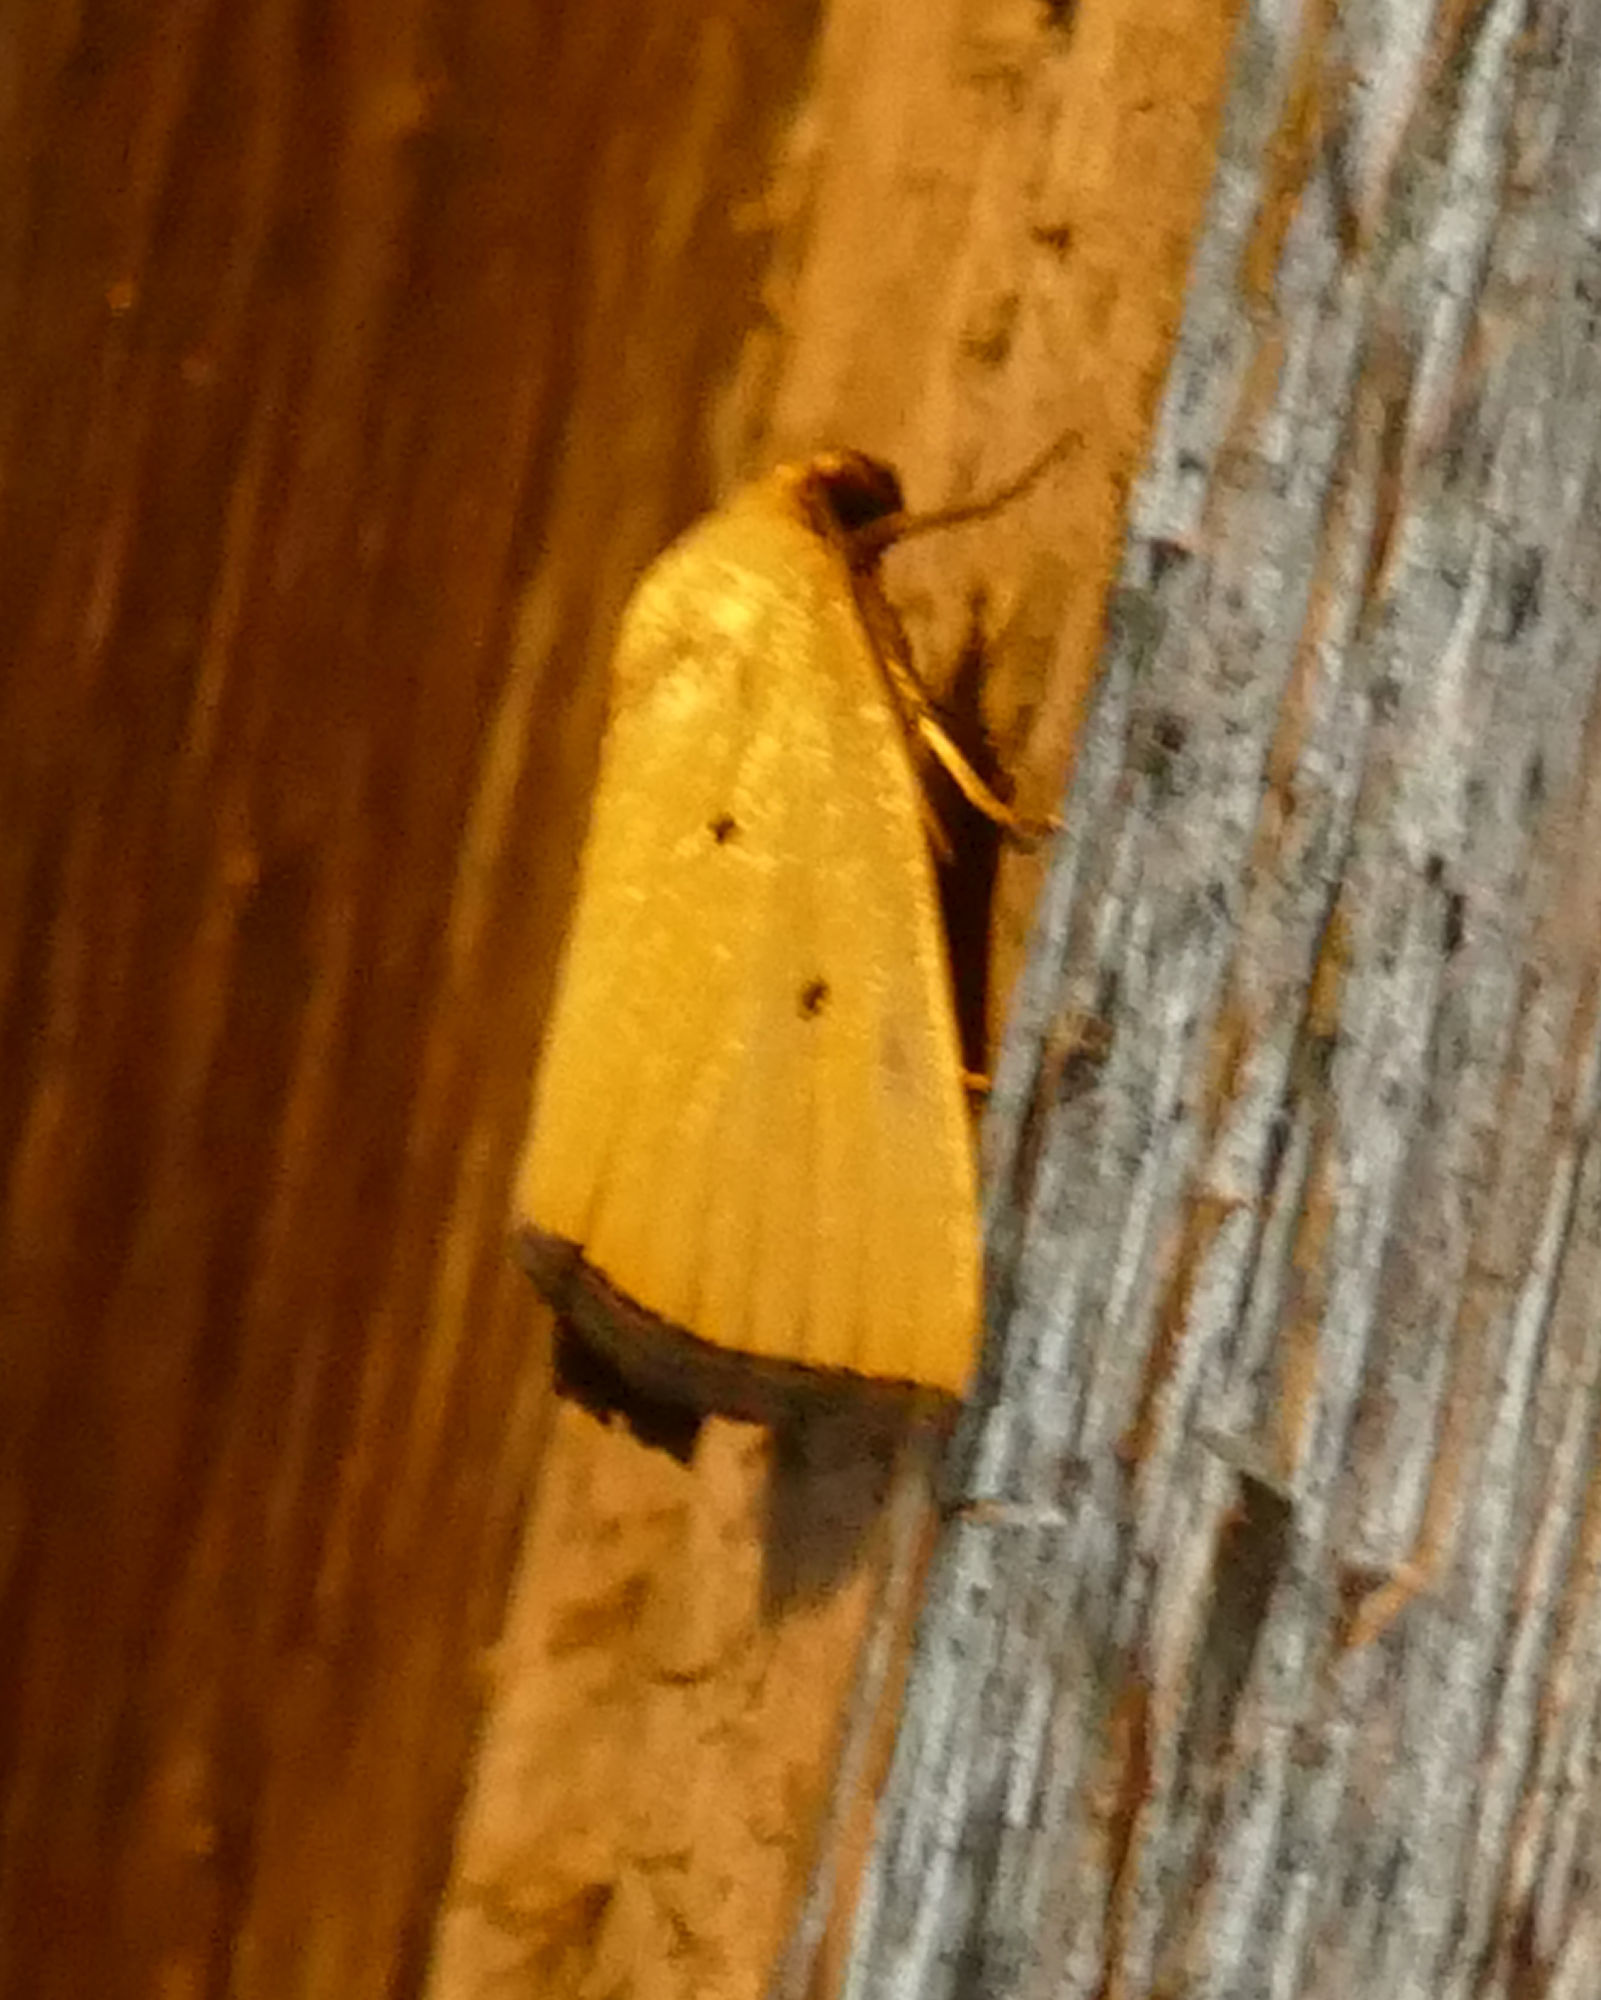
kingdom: Animalia
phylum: Arthropoda
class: Insecta
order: Lepidoptera
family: Noctuidae
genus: Marimatha
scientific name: Marimatha nigrofimbria
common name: Black-bordered lemon moth
